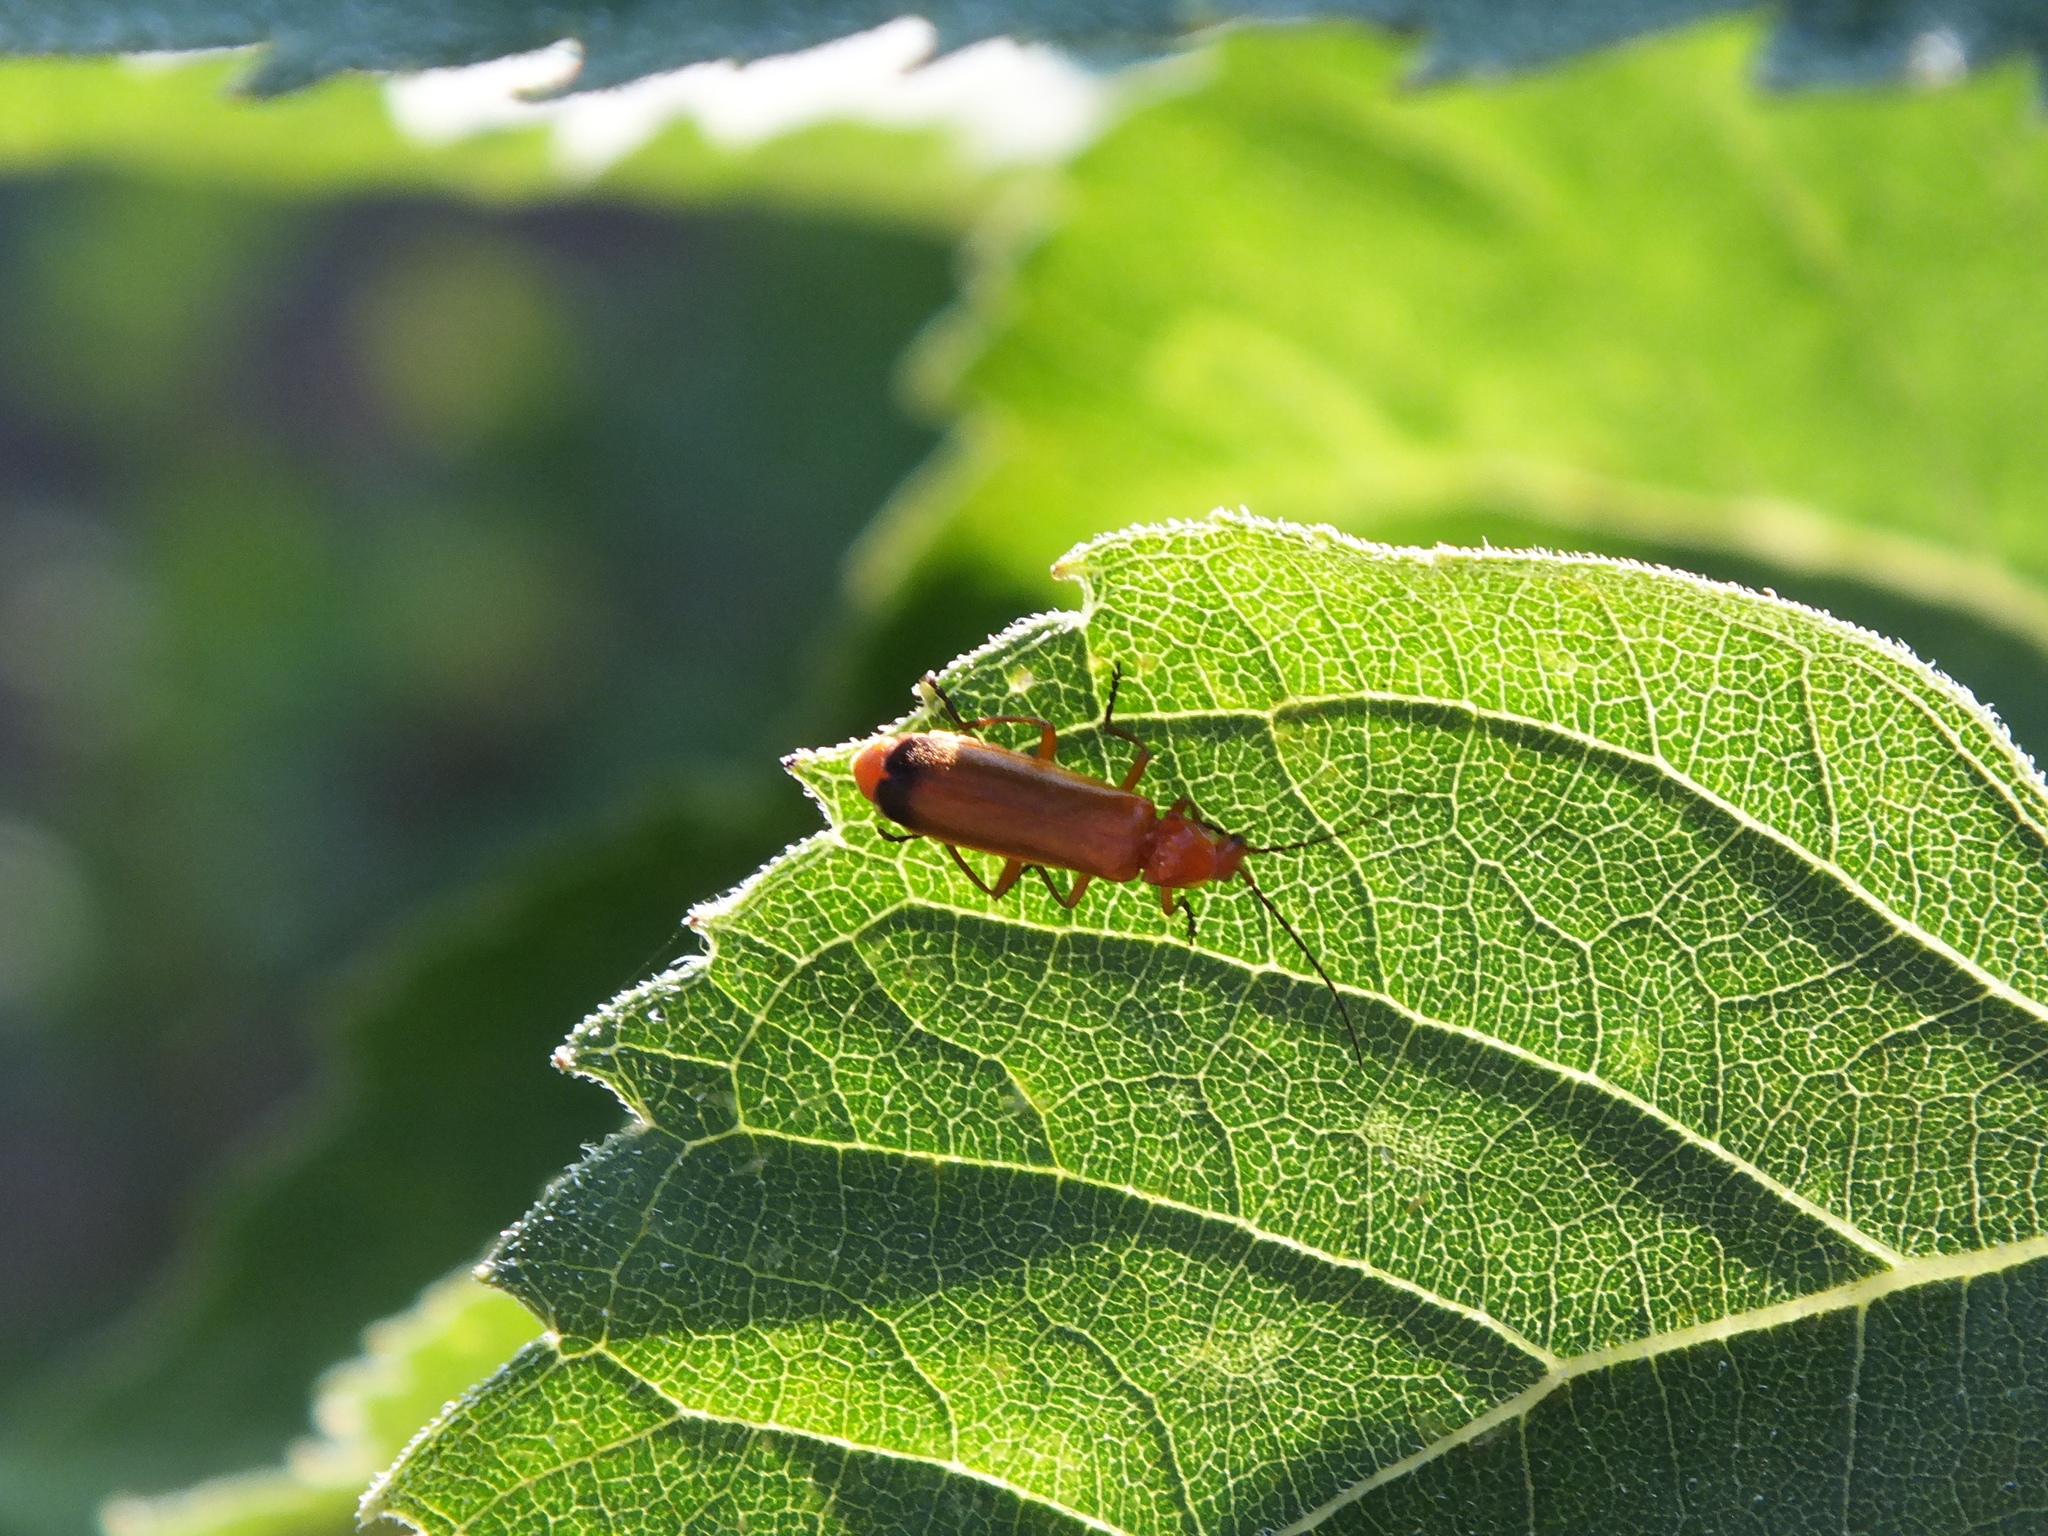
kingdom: Animalia
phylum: Arthropoda
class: Insecta
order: Coleoptera
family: Cantharidae
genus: Rhagonycha
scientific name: Rhagonycha fulva
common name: Common red soldier beetle
